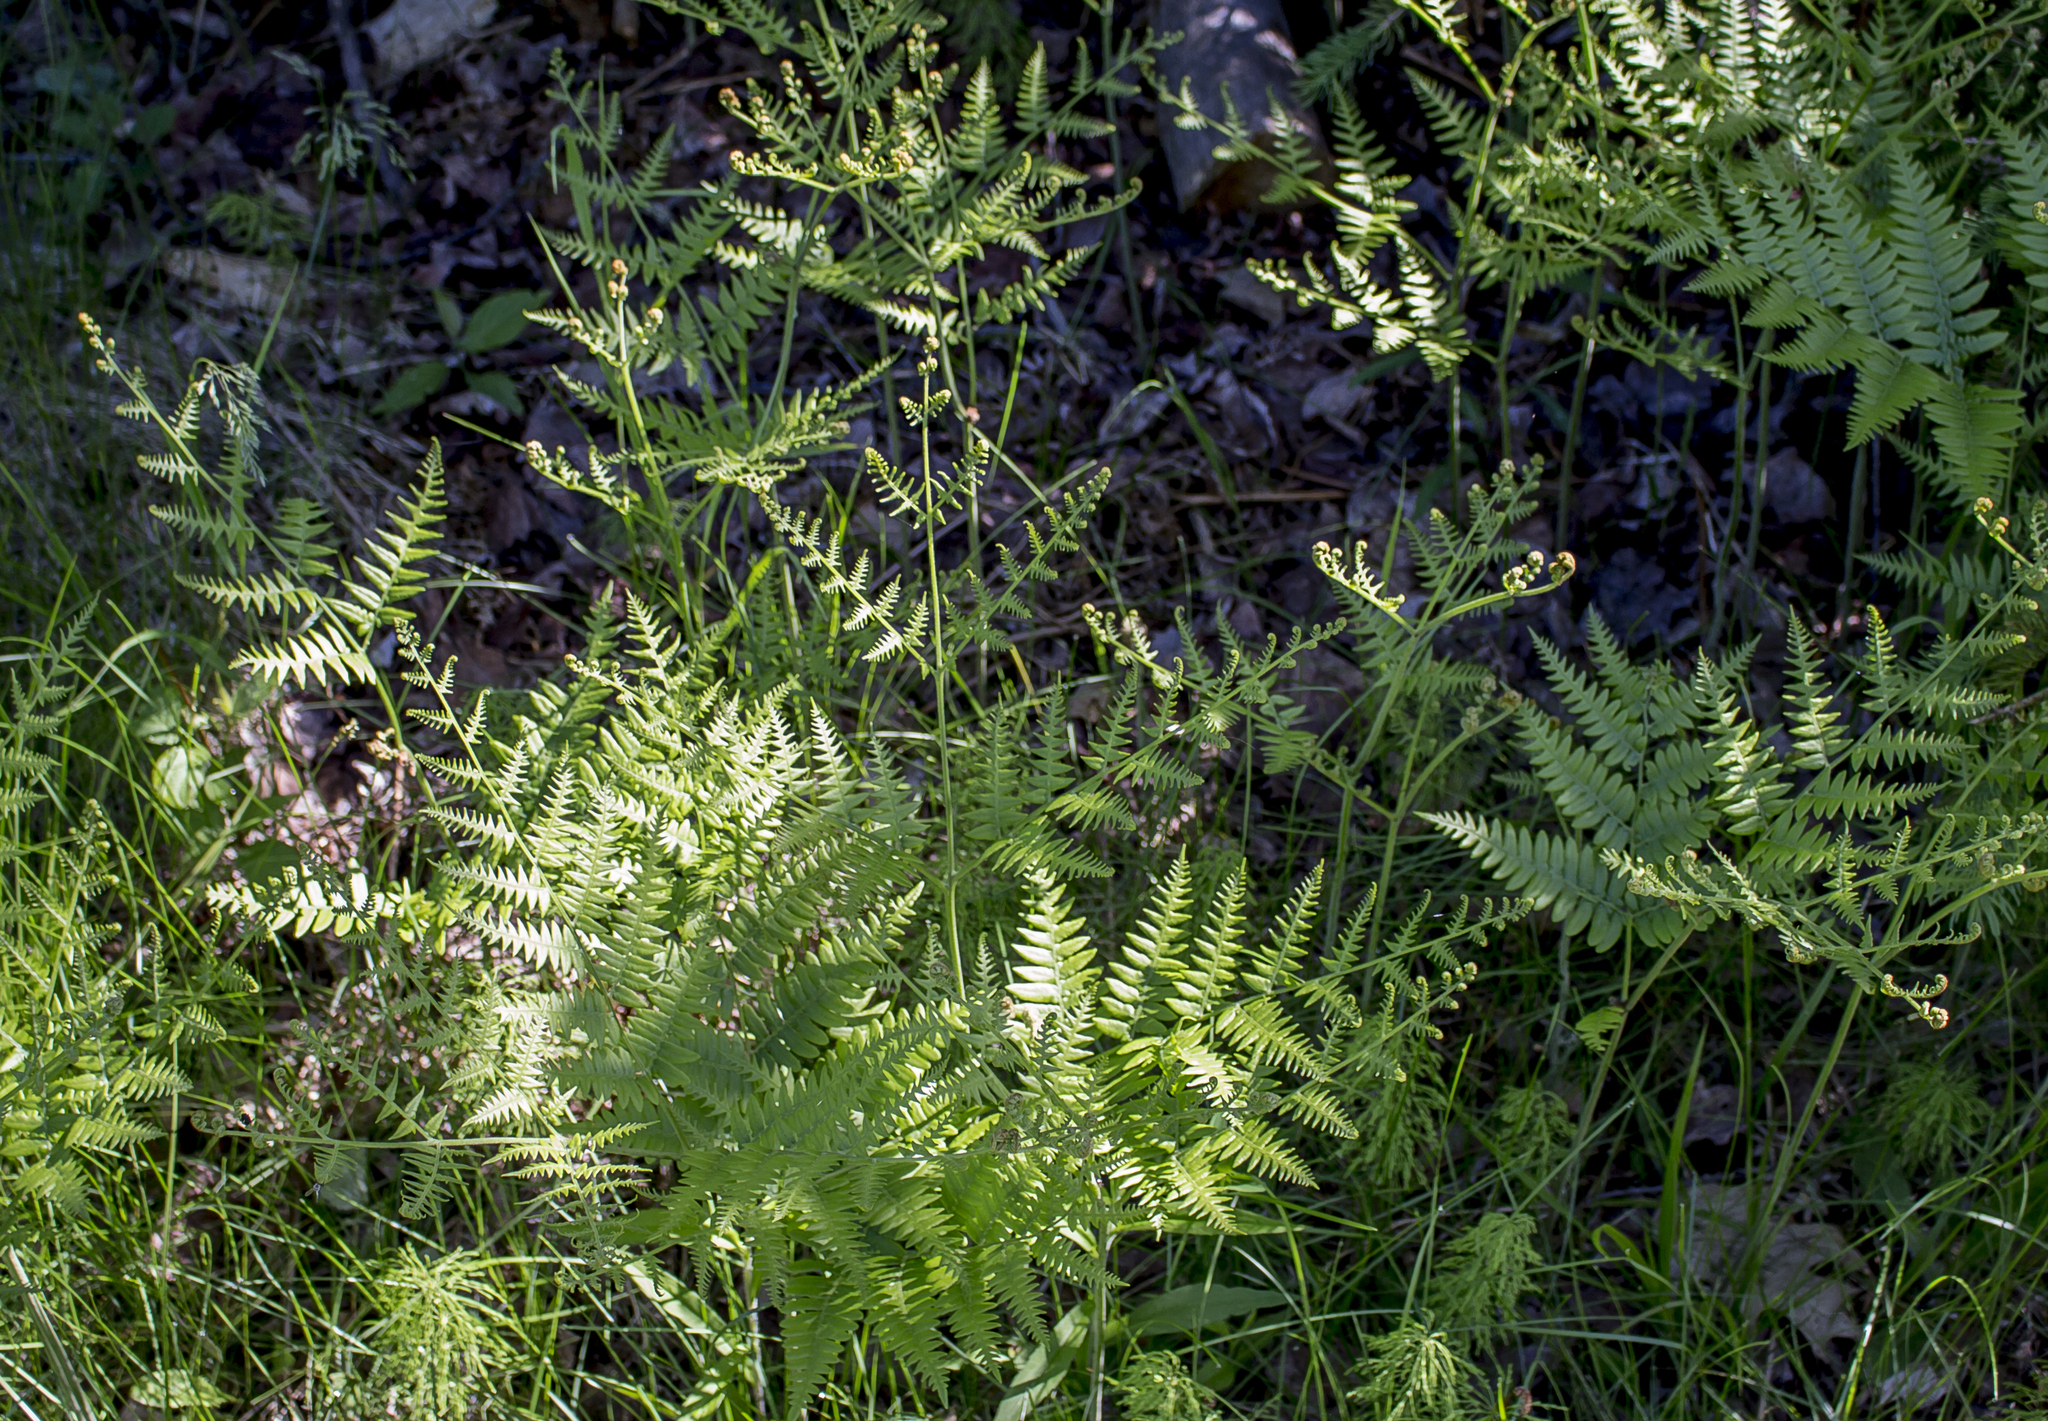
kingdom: Plantae
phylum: Tracheophyta
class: Polypodiopsida
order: Polypodiales
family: Dennstaedtiaceae
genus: Pteridium
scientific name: Pteridium aquilinum
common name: Bracken
